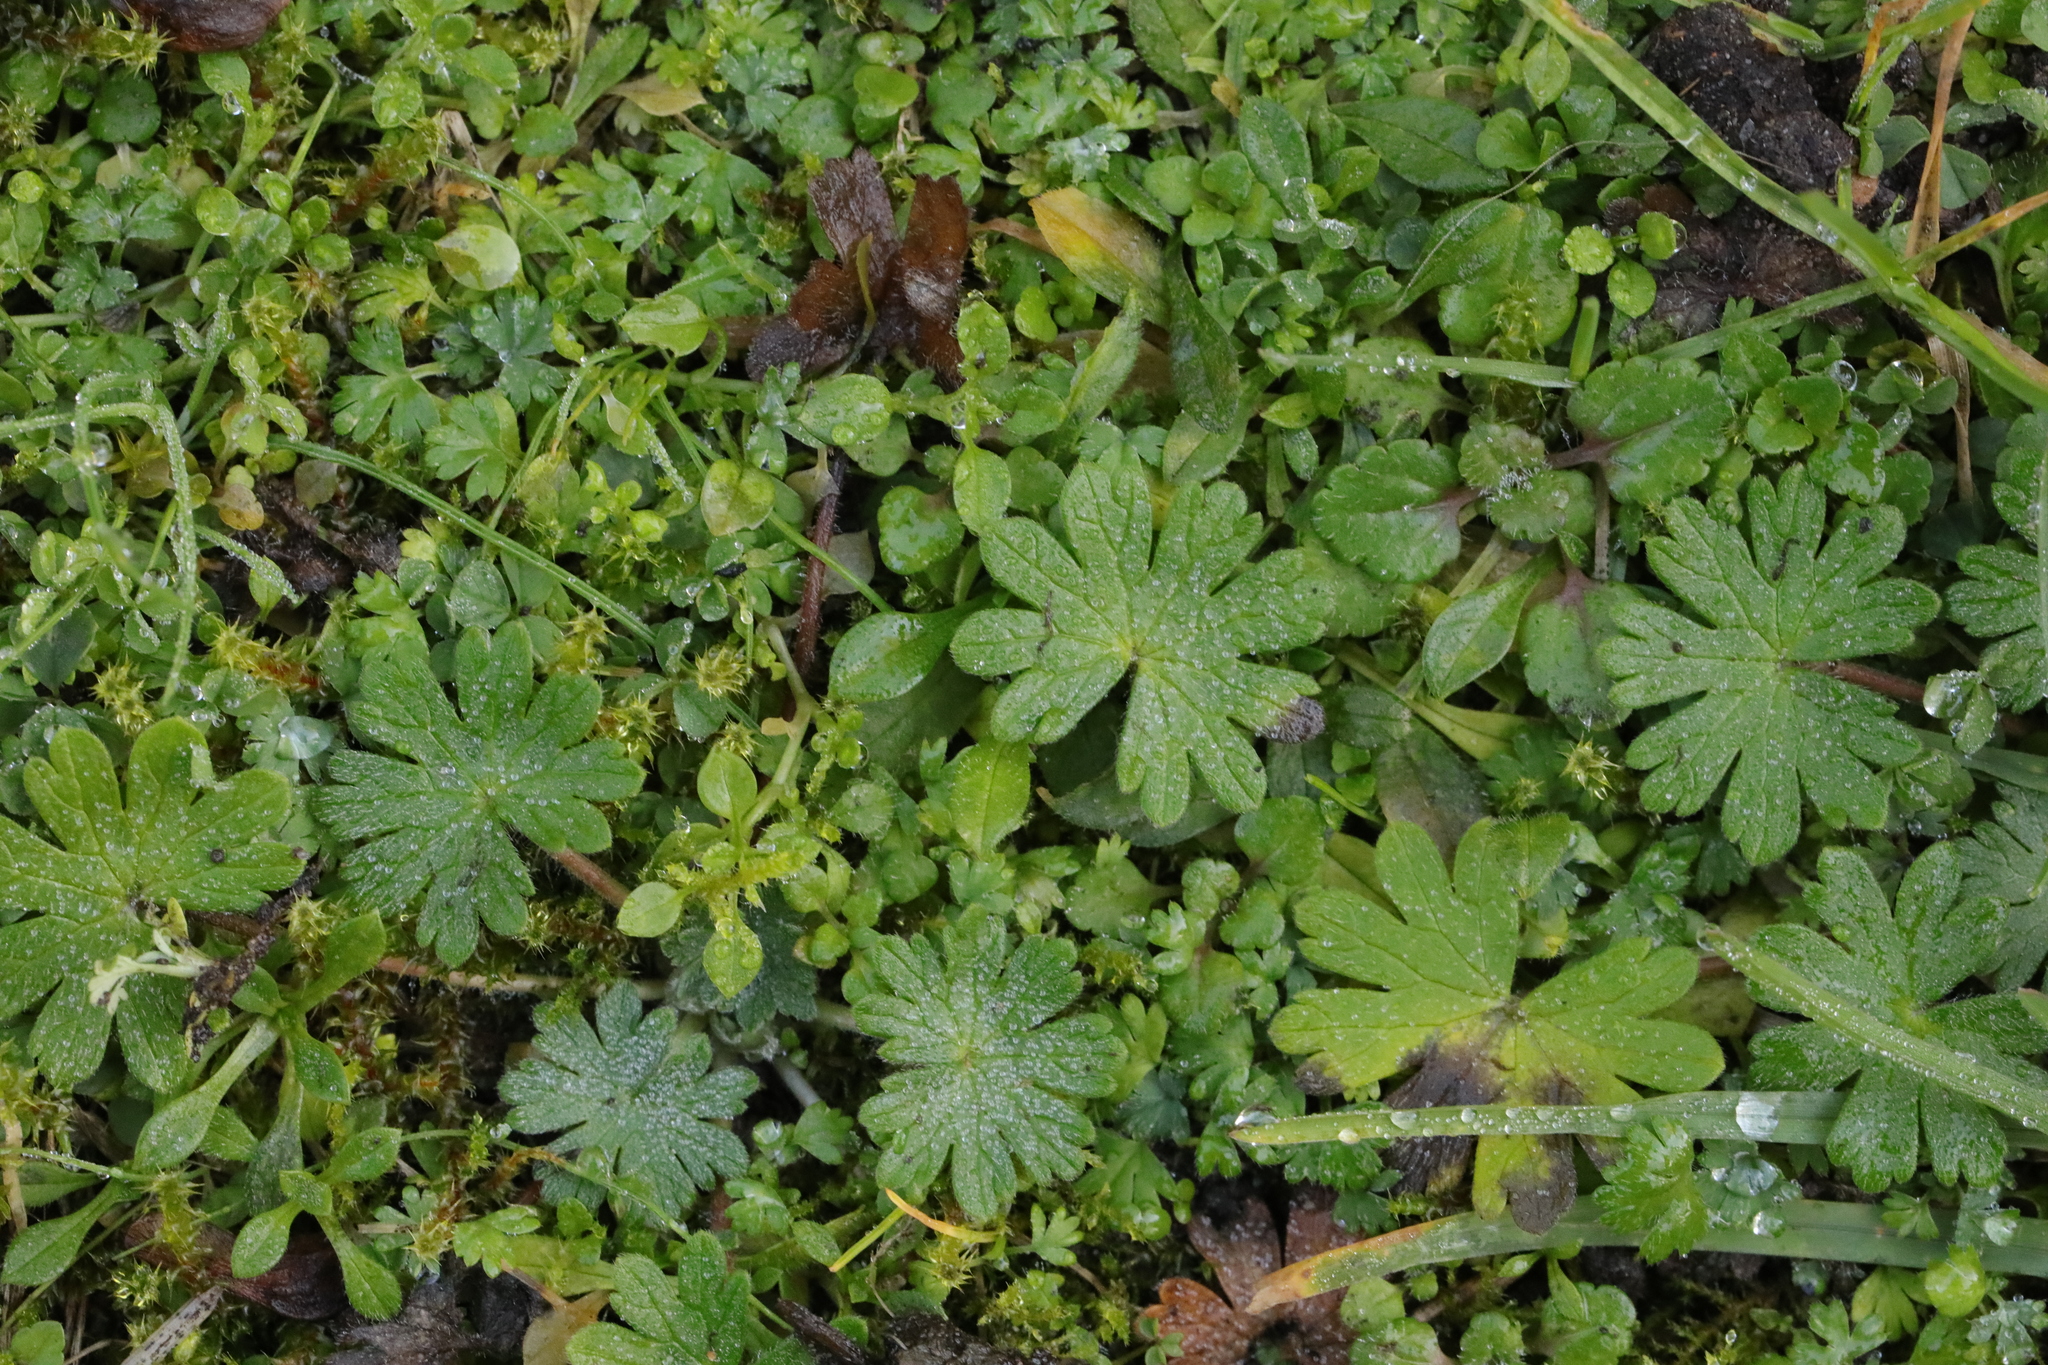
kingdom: Plantae
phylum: Tracheophyta
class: Magnoliopsida
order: Geraniales
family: Geraniaceae
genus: Geranium
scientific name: Geranium molle
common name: Dove's-foot crane's-bill
